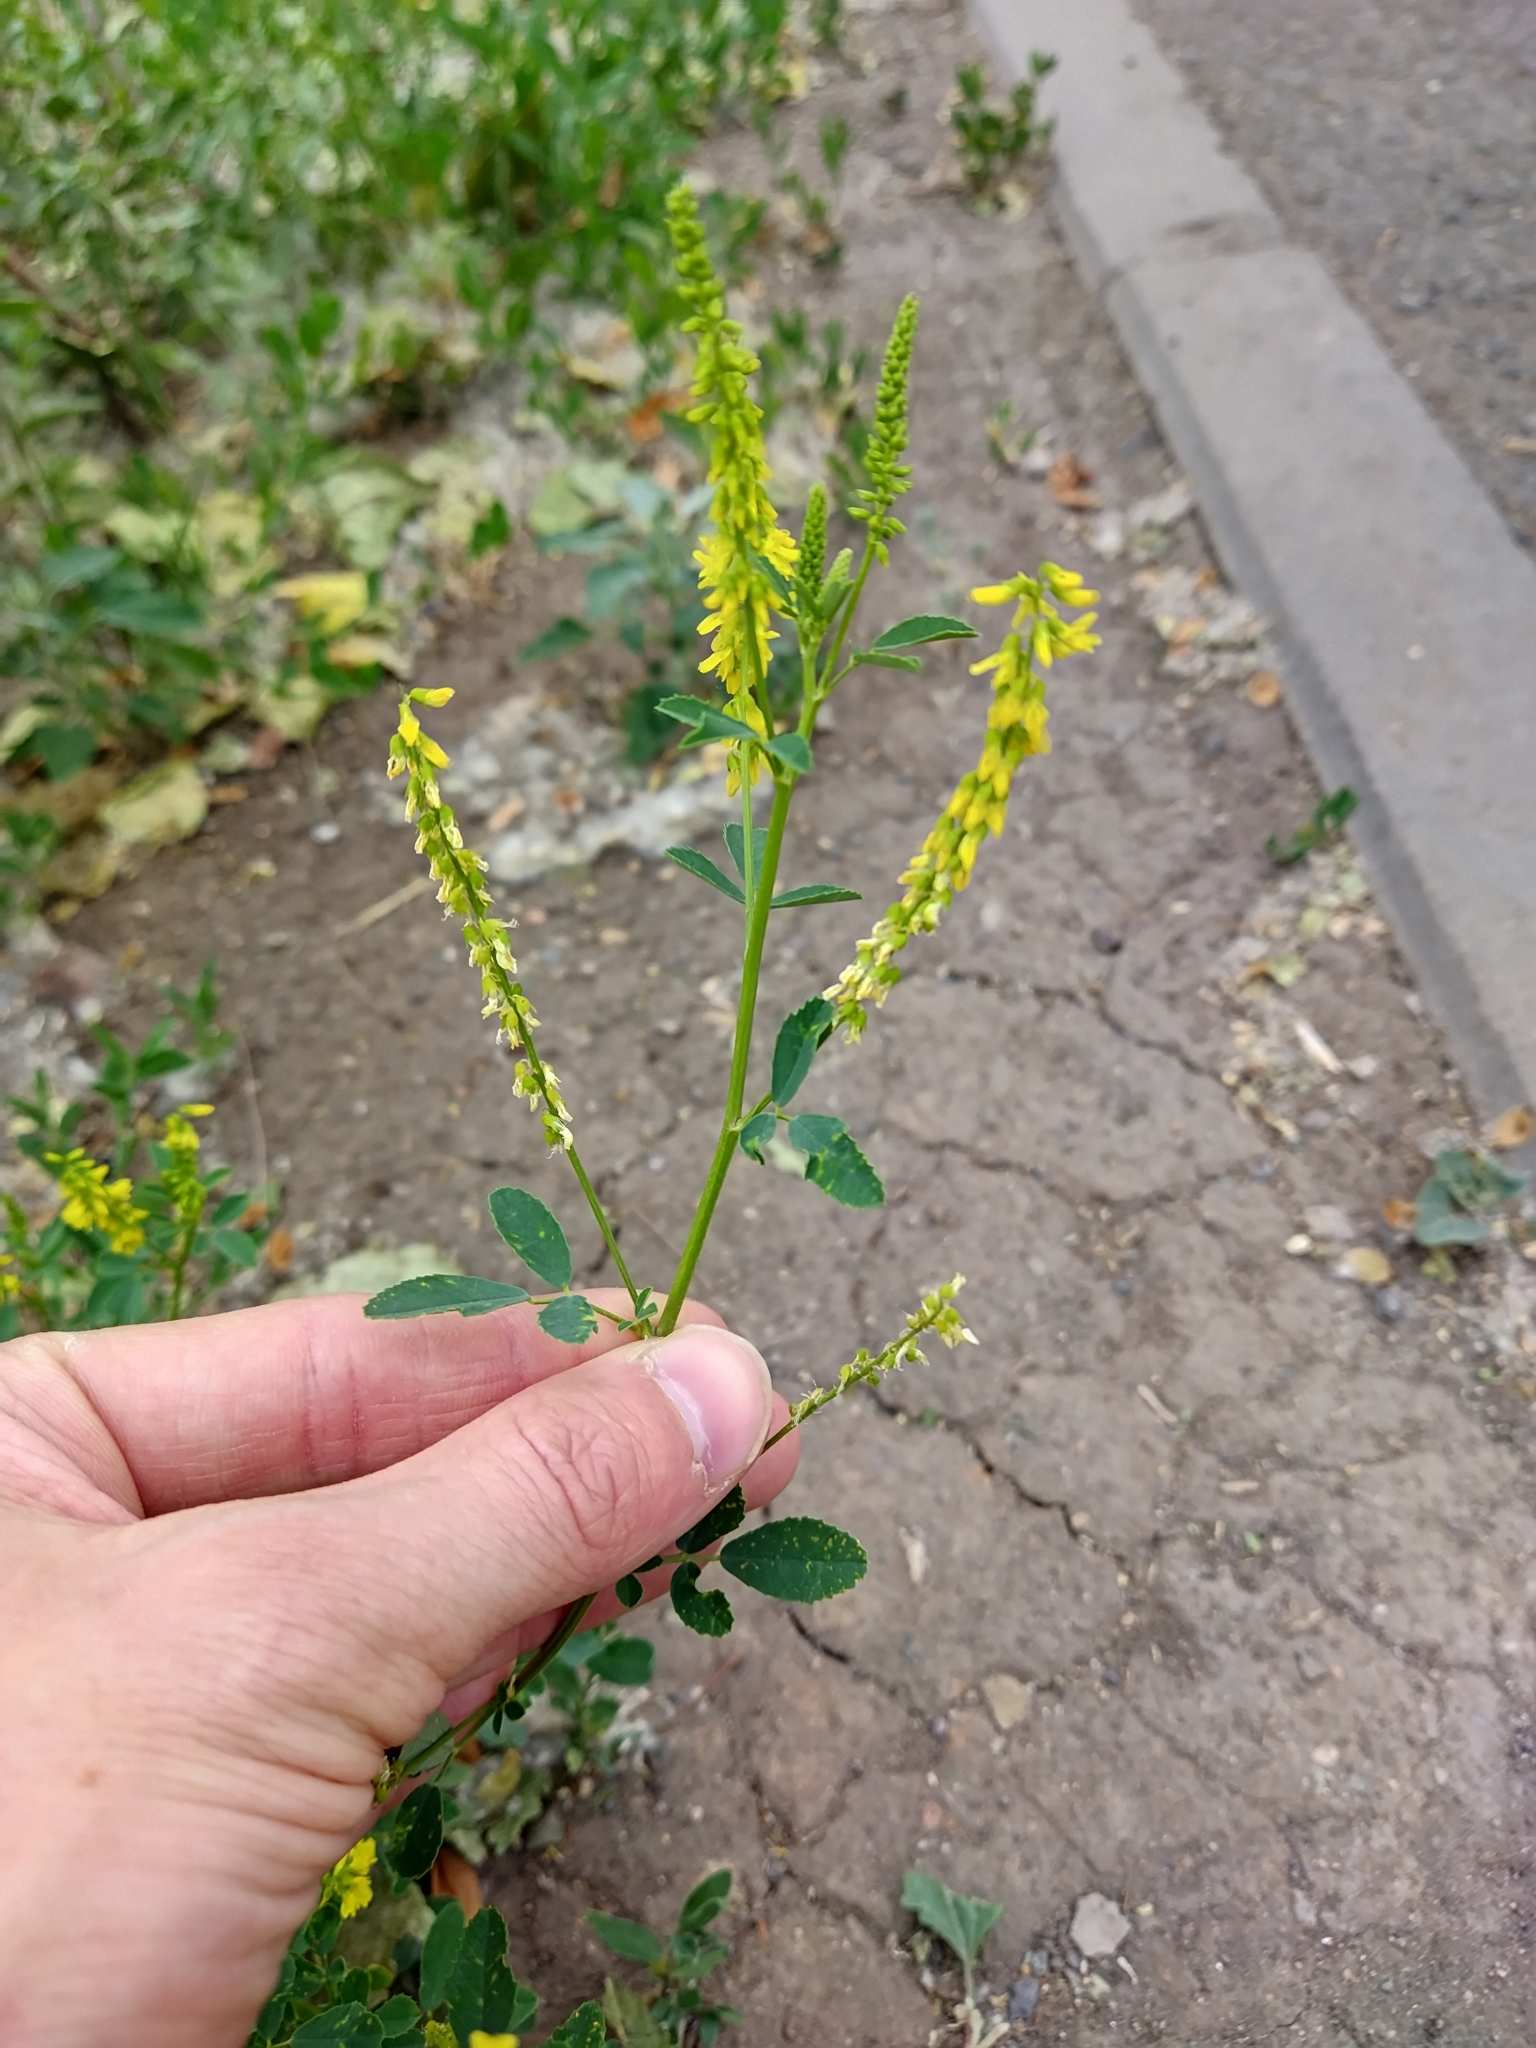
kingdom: Plantae
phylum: Tracheophyta
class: Magnoliopsida
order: Fabales
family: Fabaceae
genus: Melilotus
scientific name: Melilotus officinalis
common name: Sweetclover
